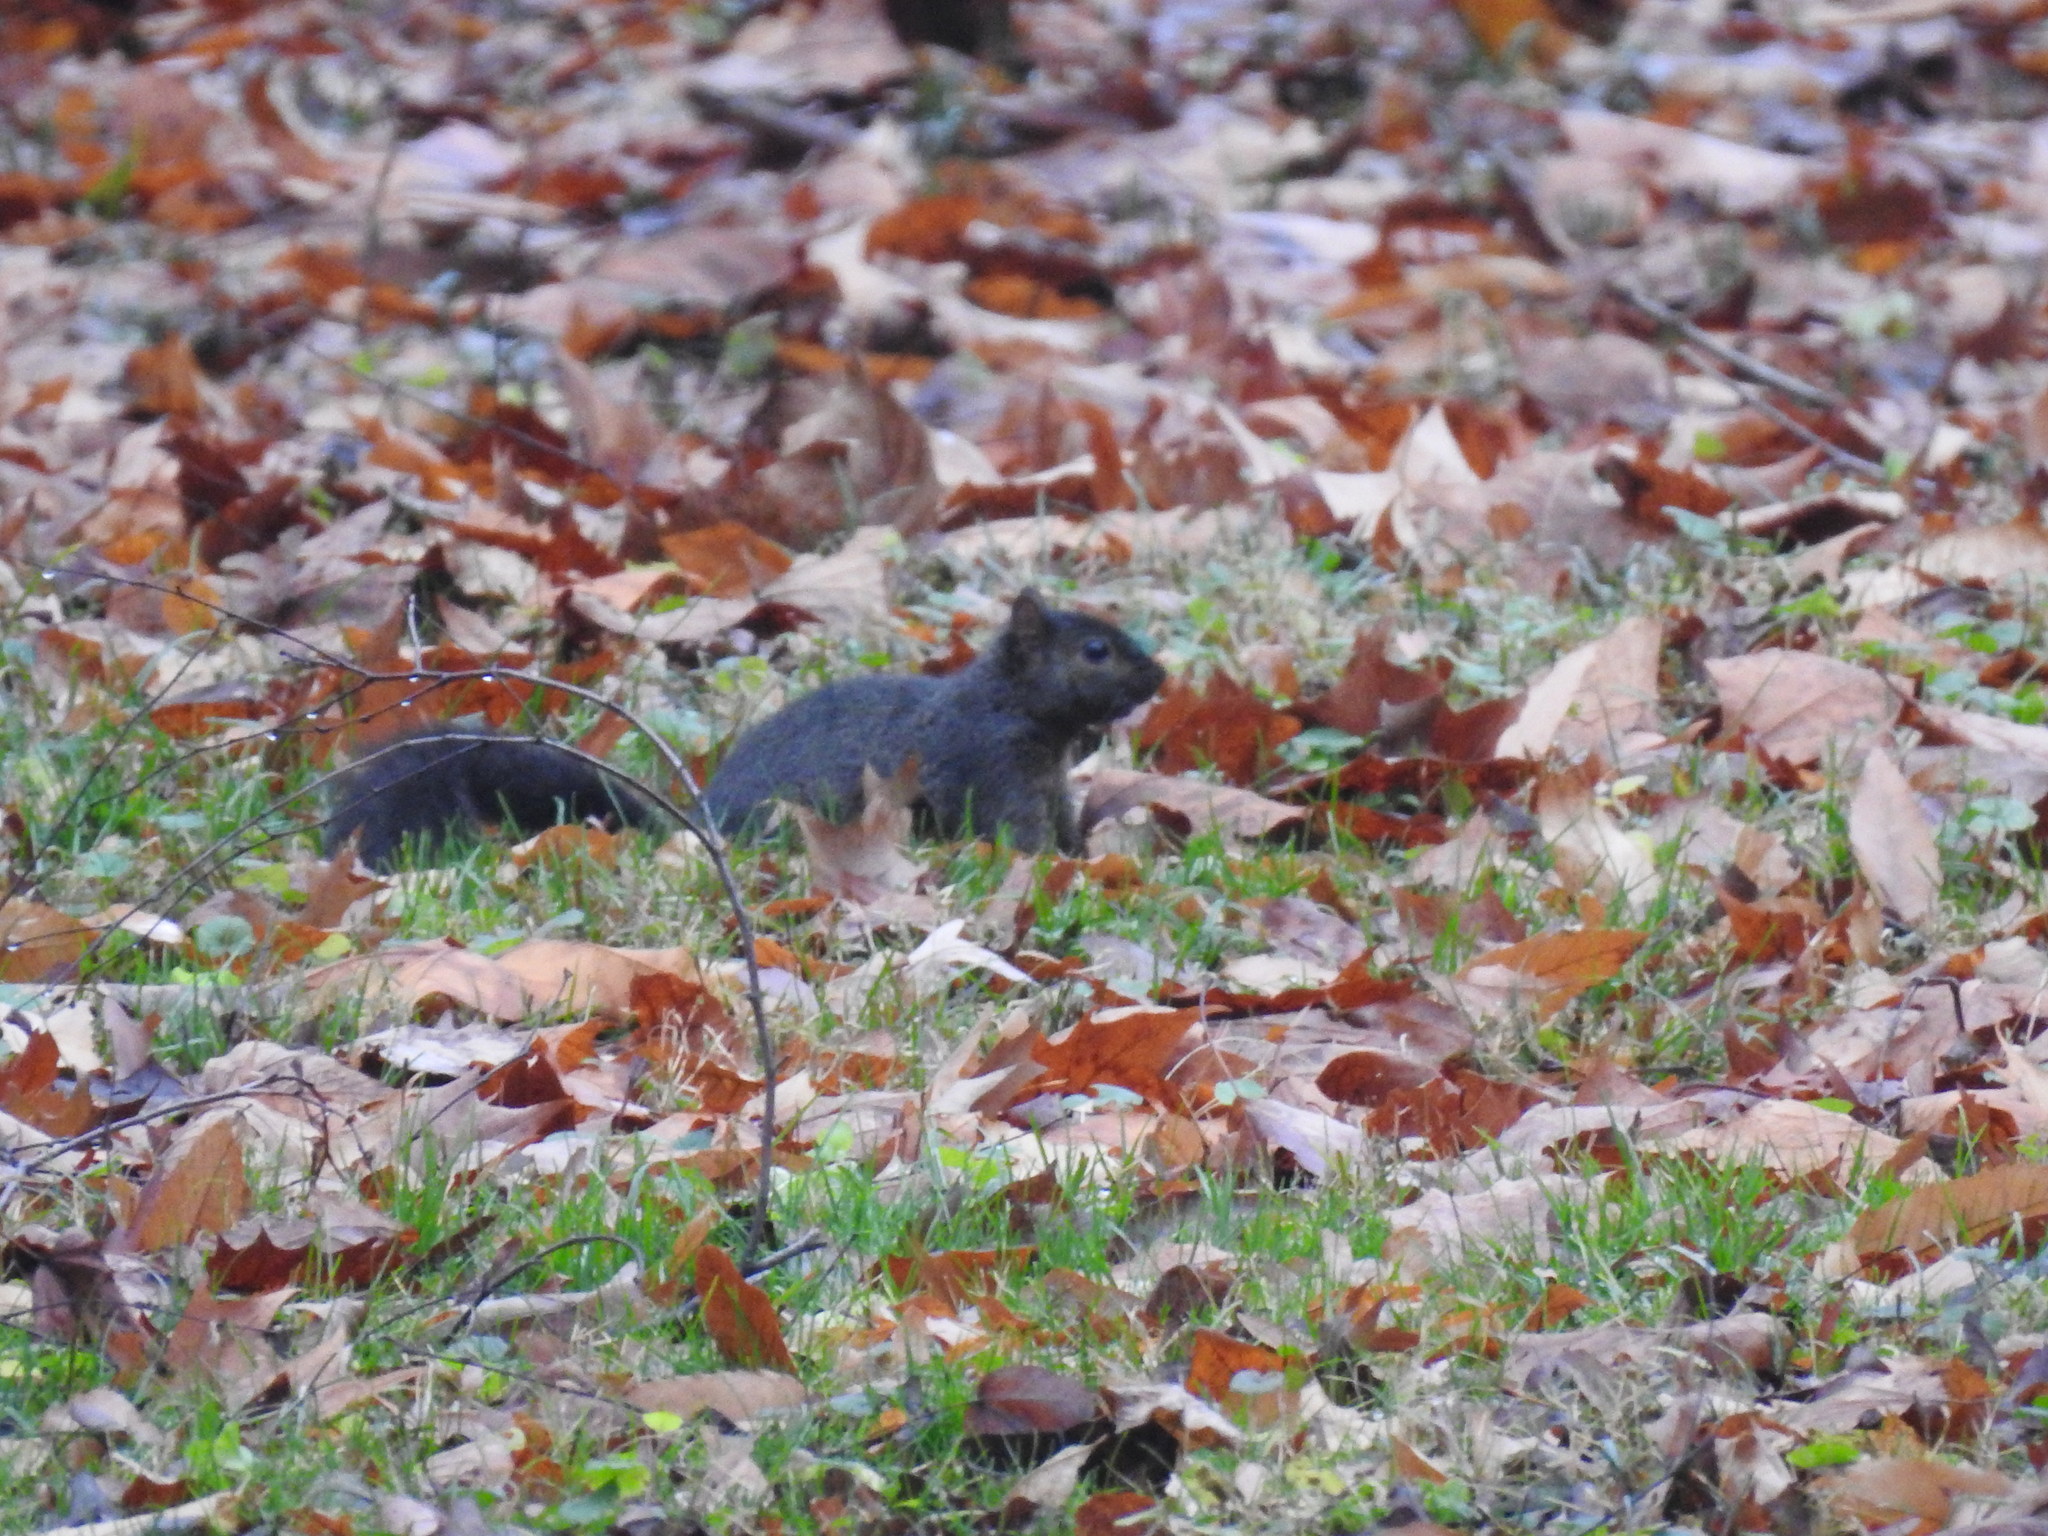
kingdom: Animalia
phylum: Chordata
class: Mammalia
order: Rodentia
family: Sciuridae
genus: Sciurus
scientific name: Sciurus carolinensis
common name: Eastern gray squirrel
